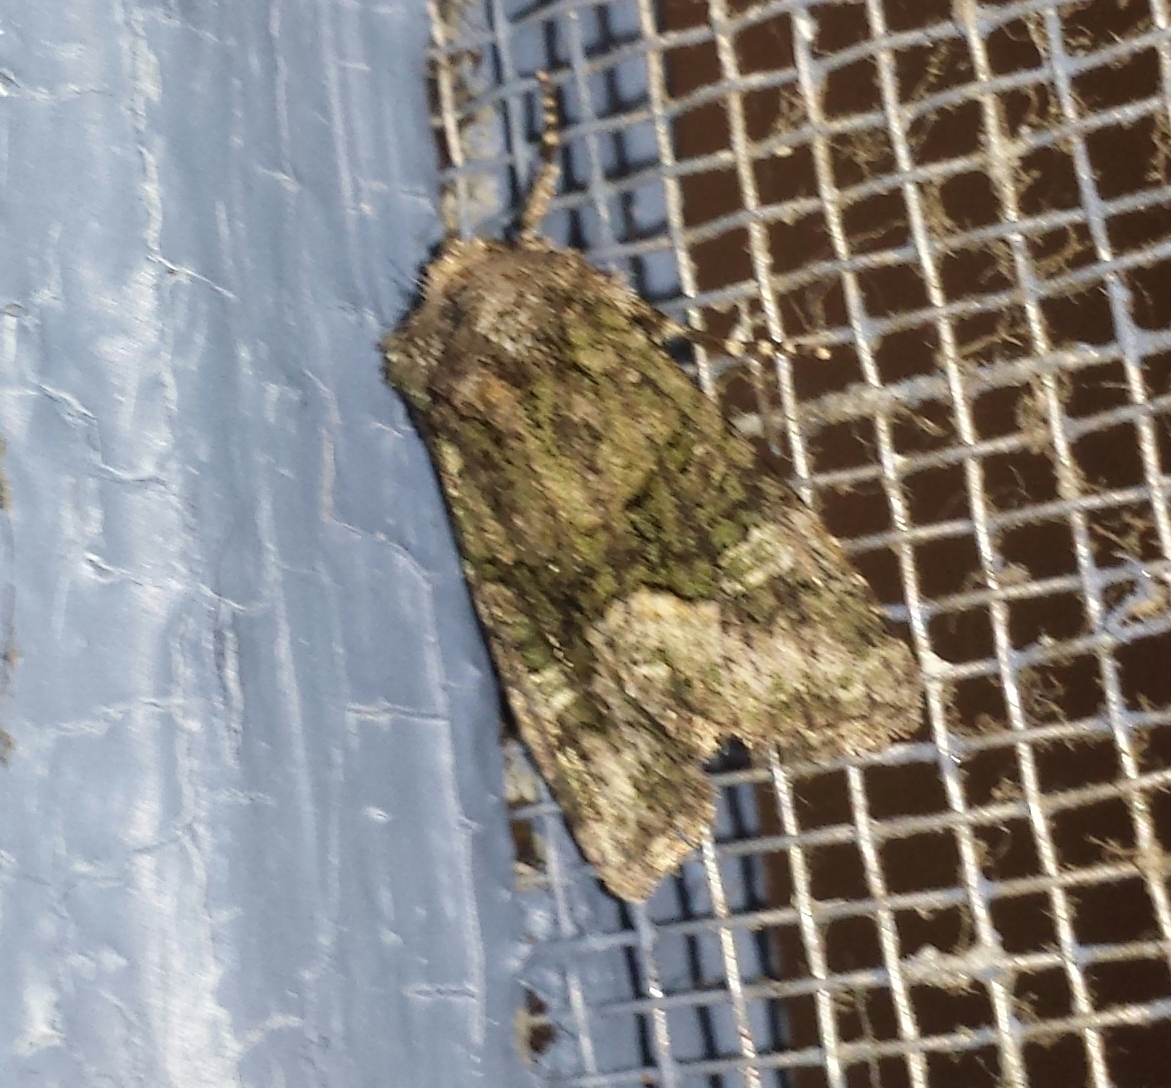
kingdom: Animalia
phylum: Arthropoda
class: Insecta
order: Lepidoptera
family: Noctuidae
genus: Lacinipolia
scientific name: Lacinipolia olivacea
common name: Olive arches moth
